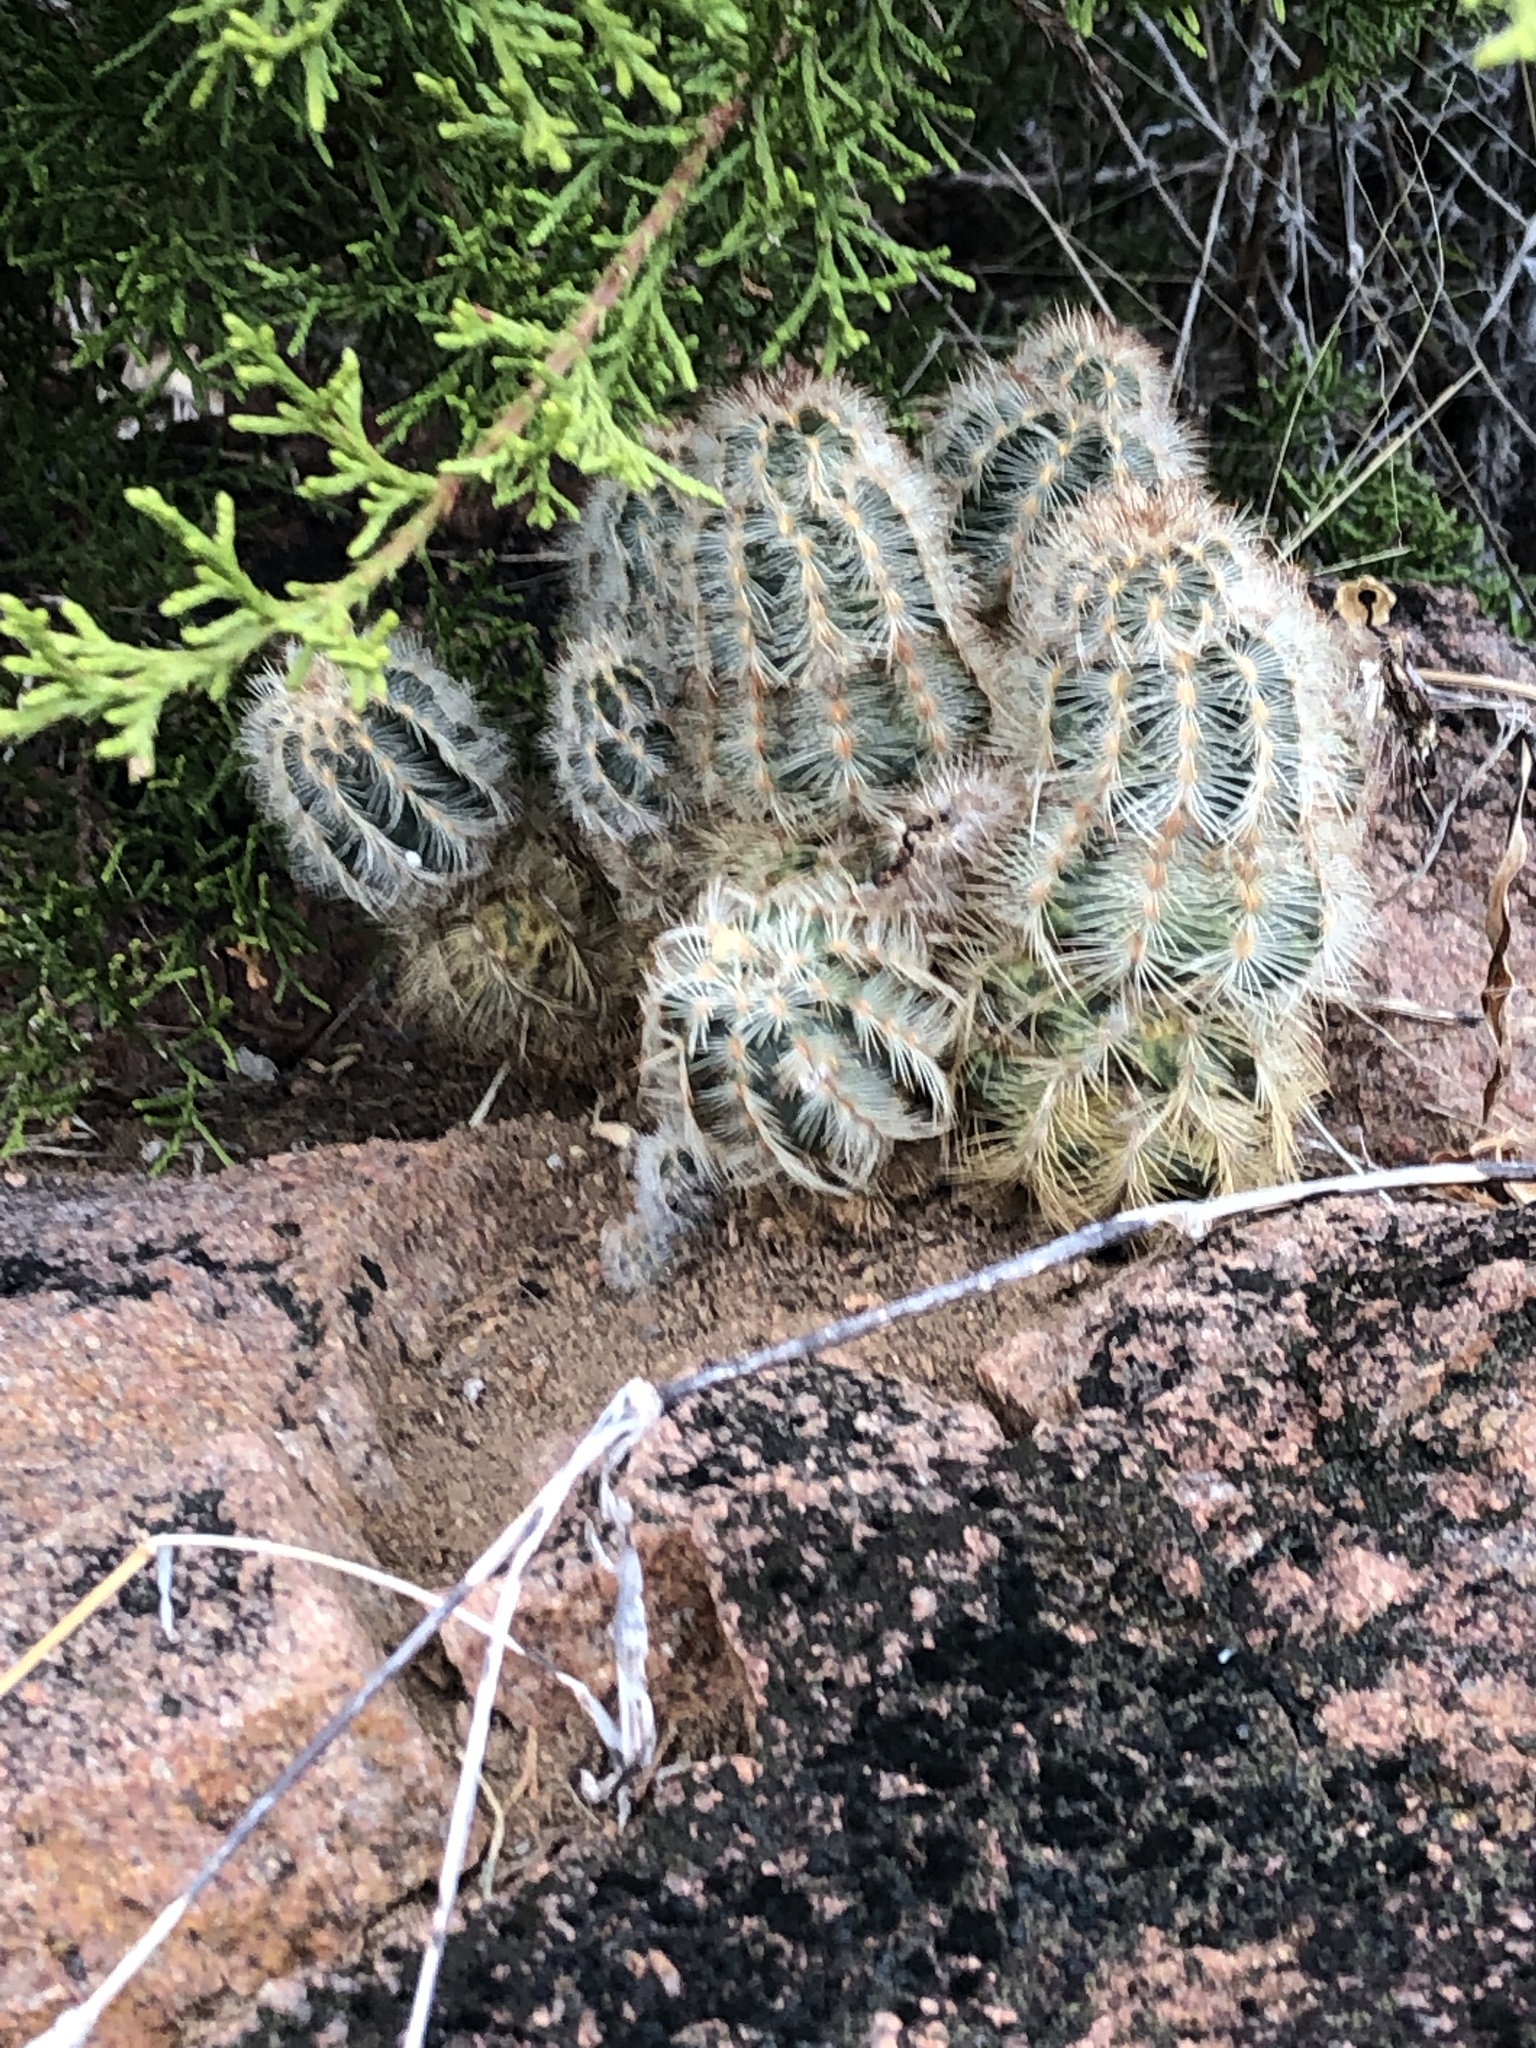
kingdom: Plantae
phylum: Tracheophyta
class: Magnoliopsida
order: Caryophyllales
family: Cactaceae
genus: Echinocereus
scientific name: Echinocereus reichenbachii
